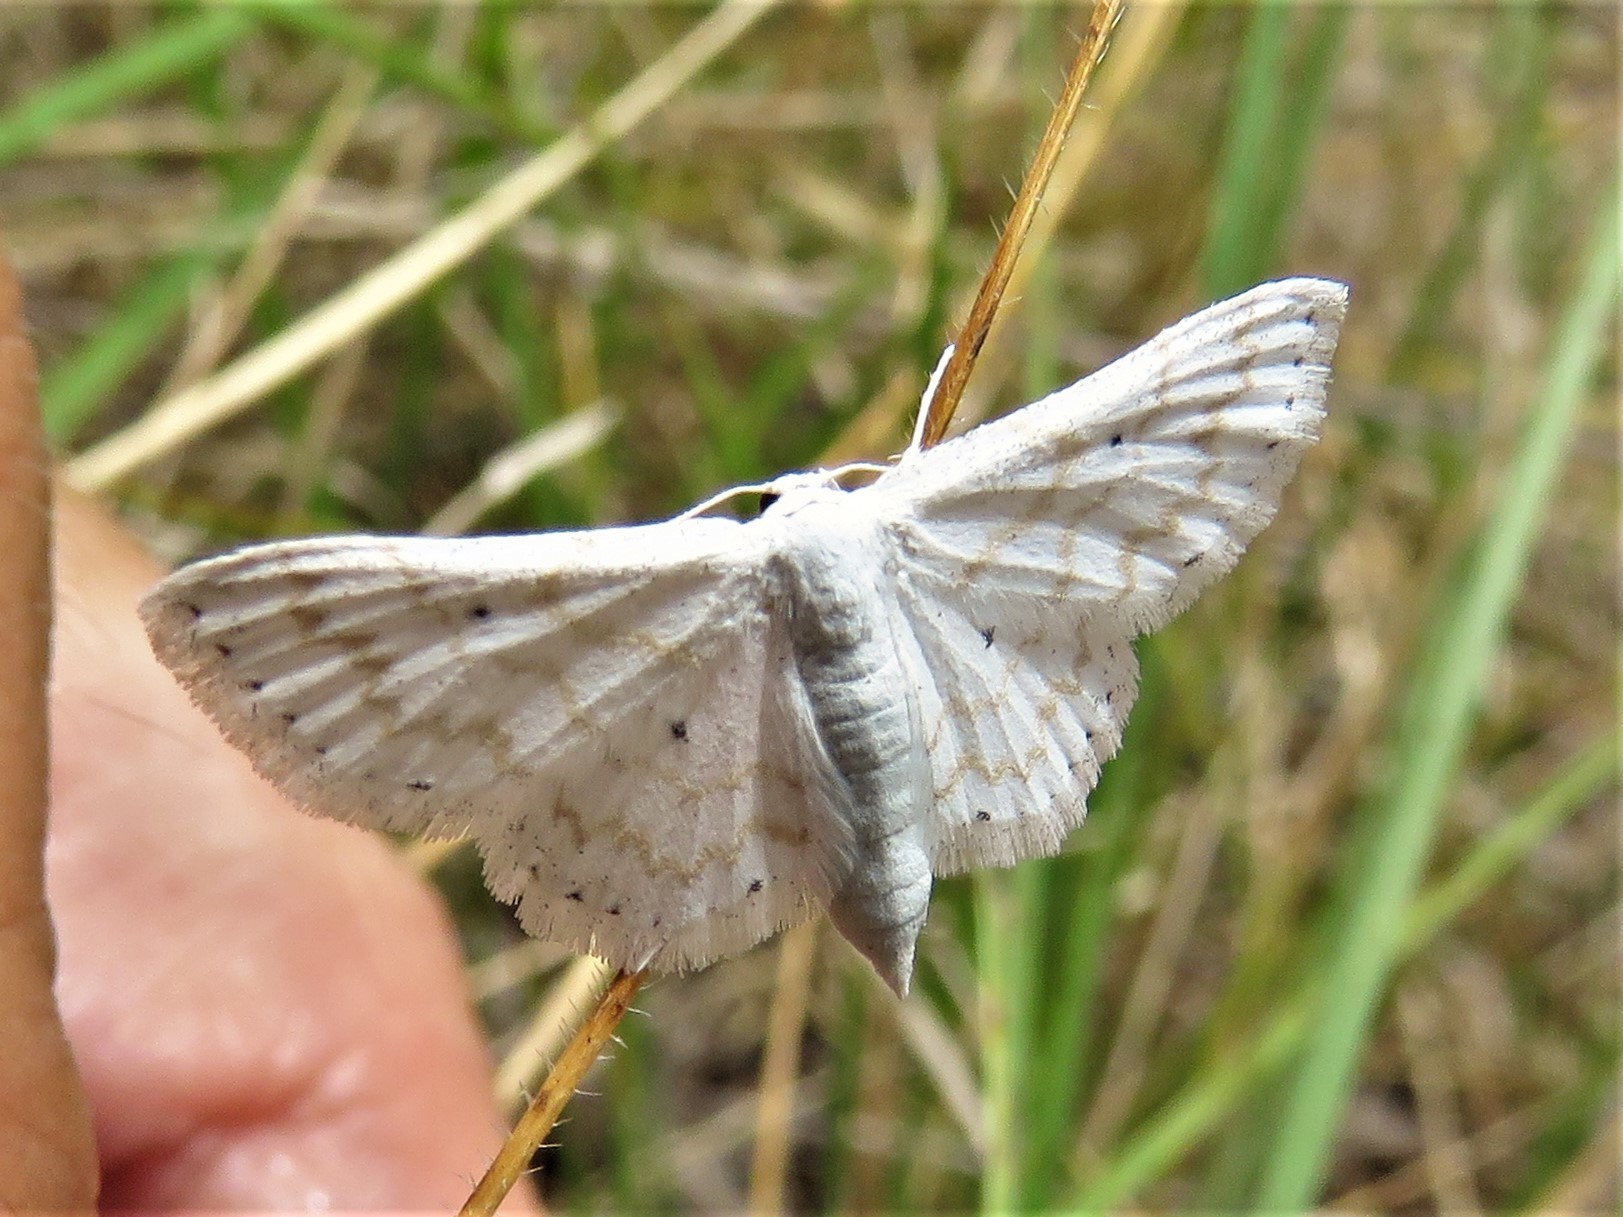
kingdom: Animalia
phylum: Arthropoda
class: Insecta
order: Lepidoptera
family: Geometridae
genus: Lobocleta
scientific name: Lobocleta peralbata
